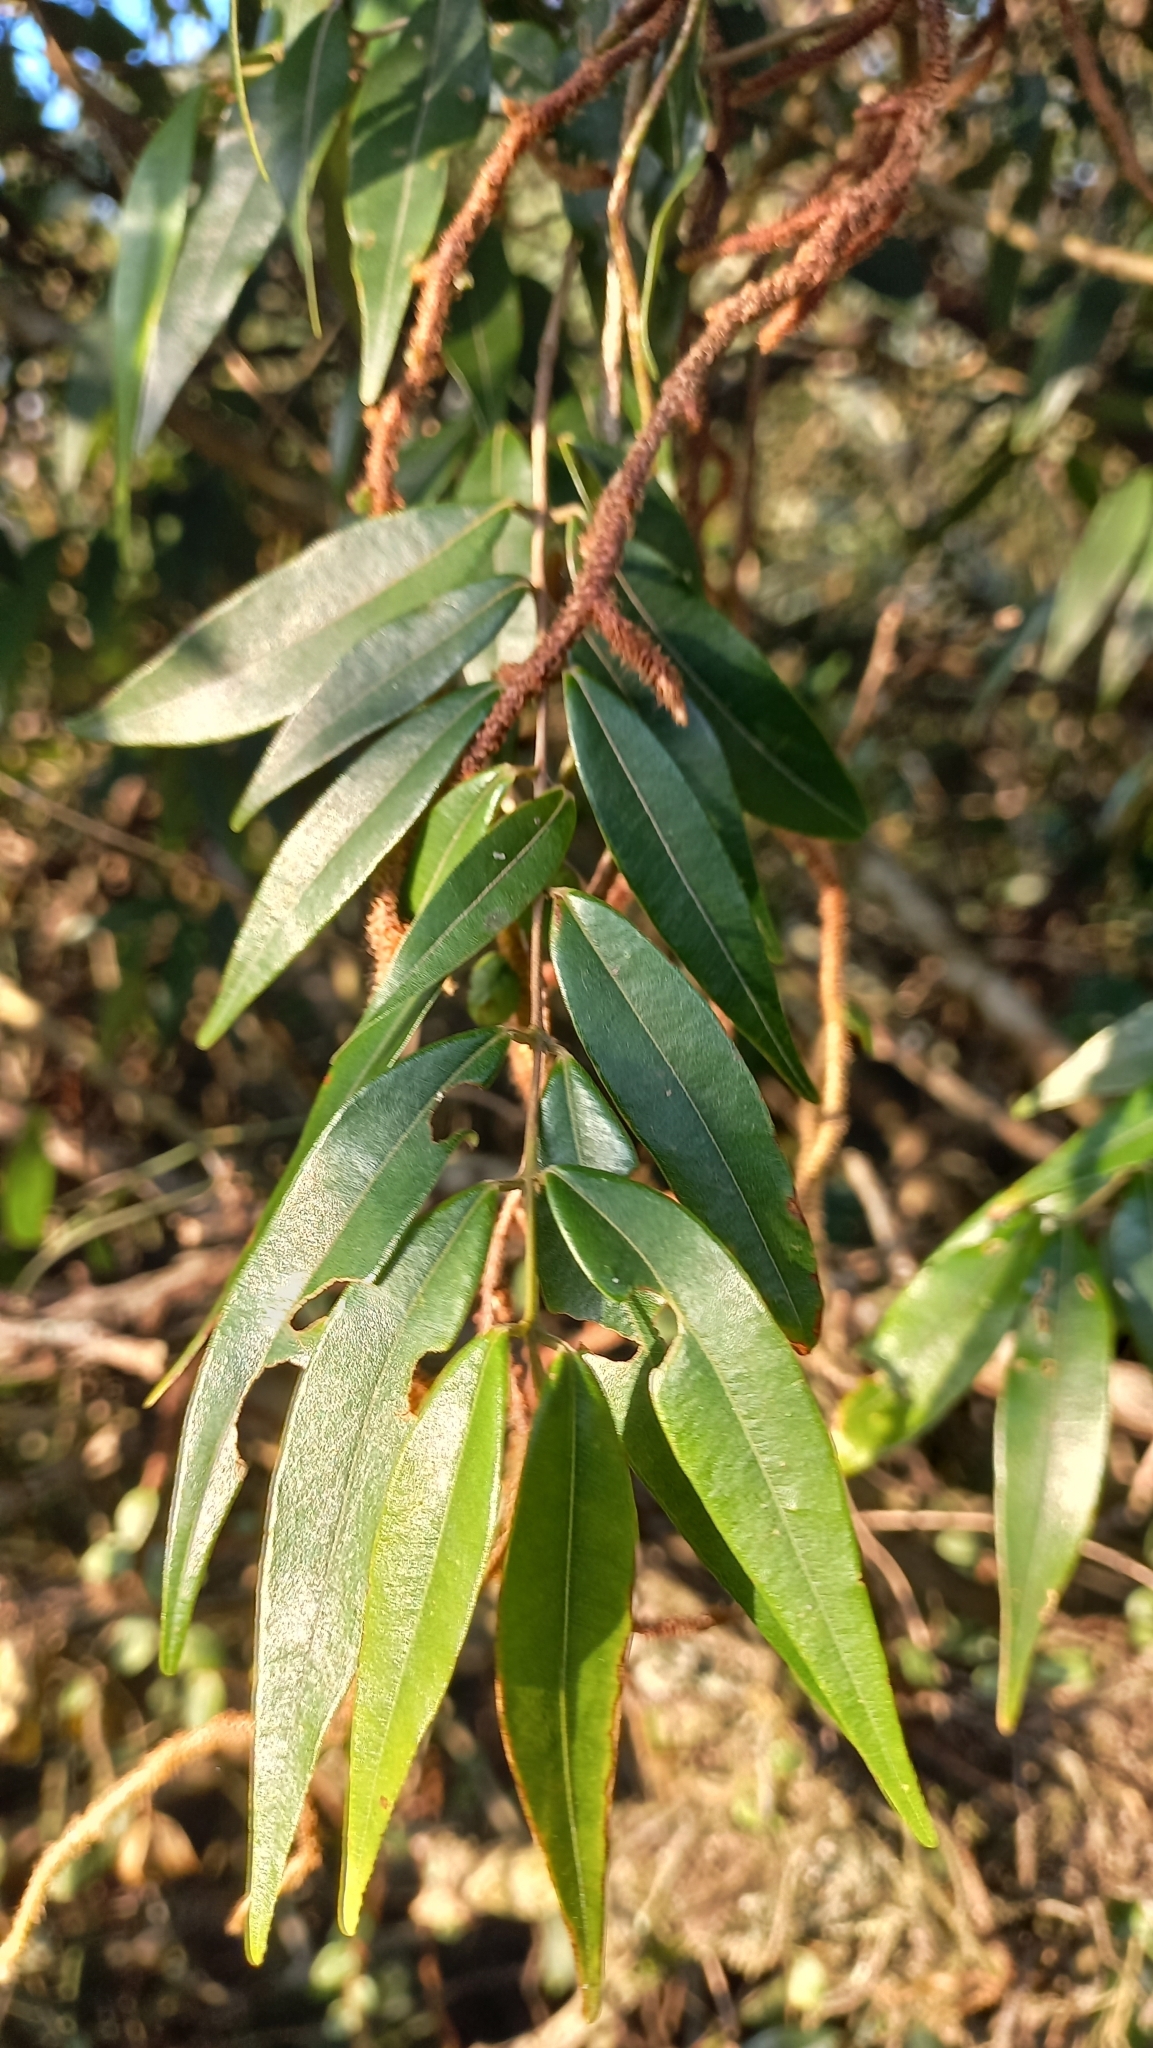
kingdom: Plantae
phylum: Tracheophyta
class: Magnoliopsida
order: Myrtales
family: Myrtaceae
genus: Myrcia
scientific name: Myrcia splendens
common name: Surinam cherry
